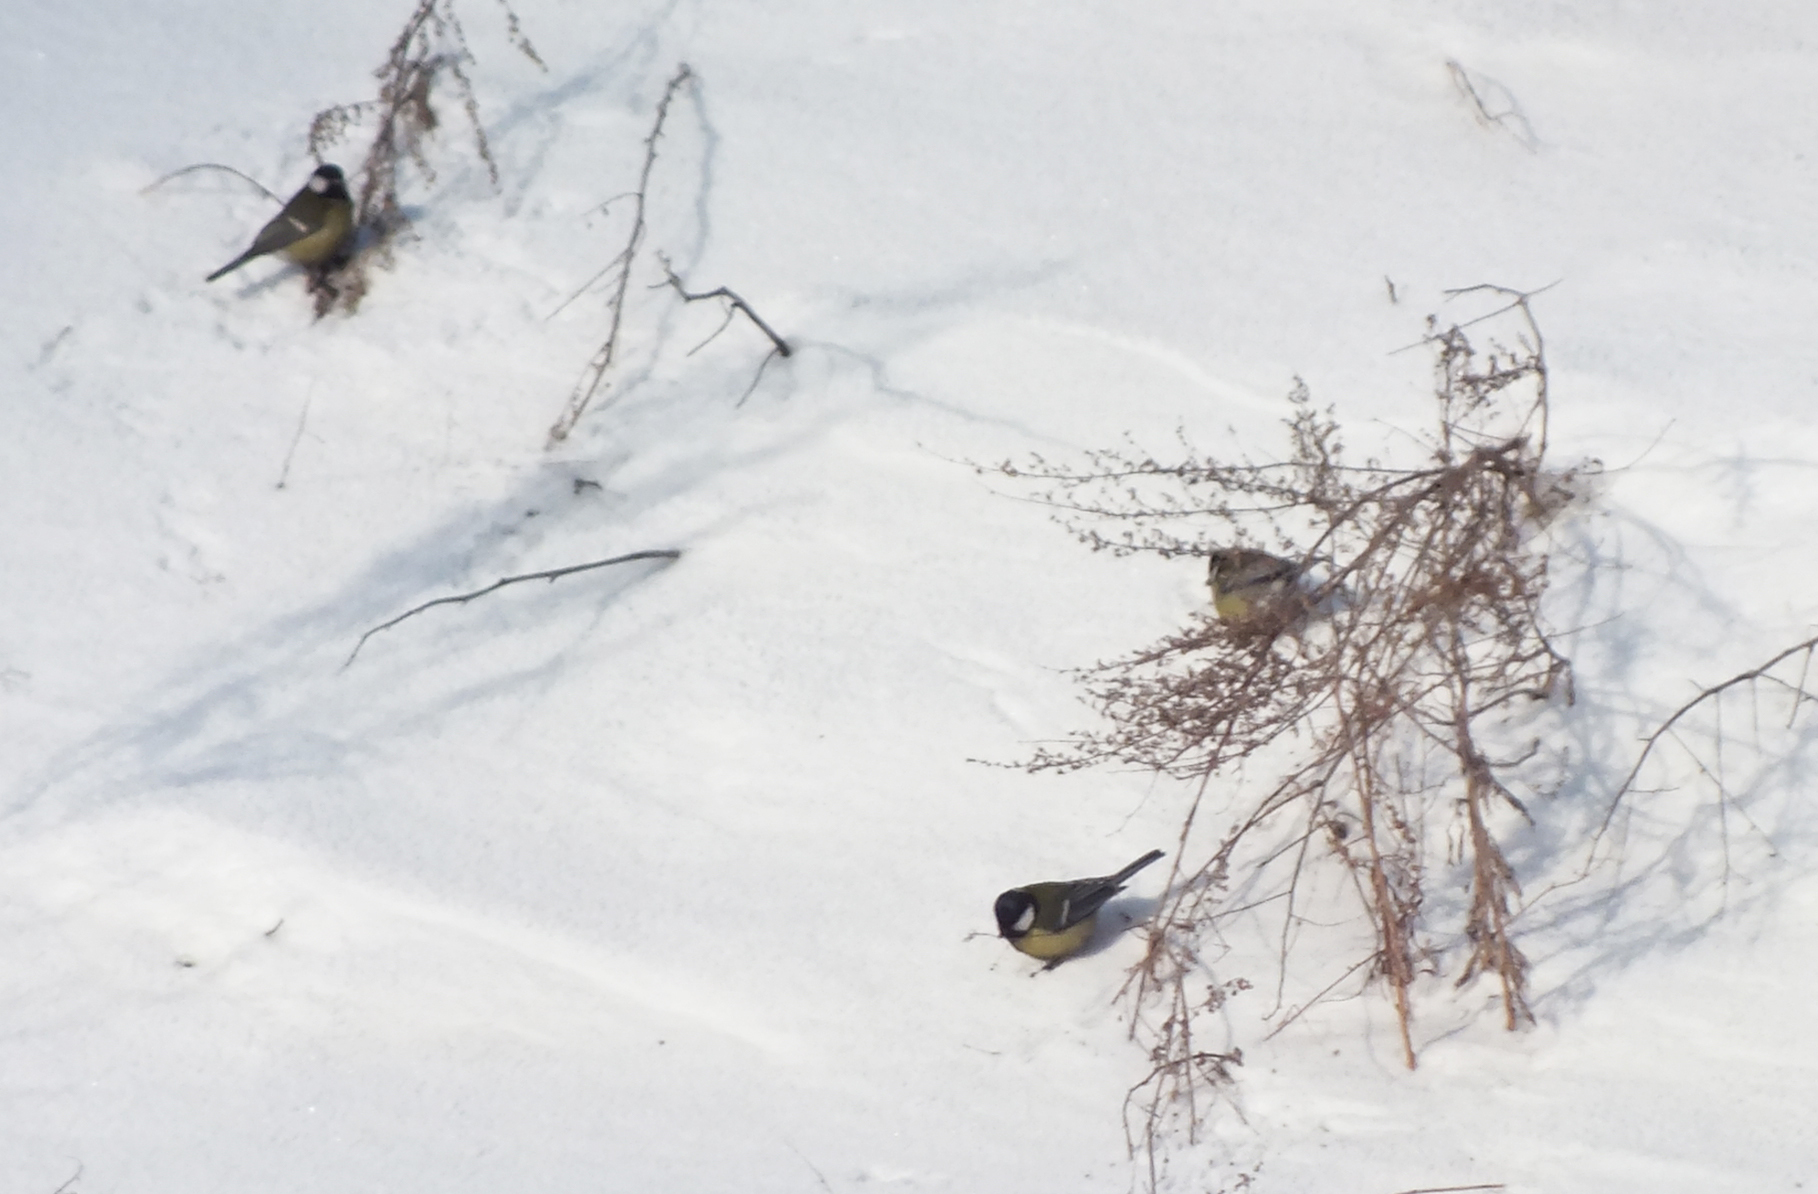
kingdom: Animalia
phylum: Chordata
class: Aves
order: Passeriformes
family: Paridae
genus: Parus
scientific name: Parus major
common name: Great tit
